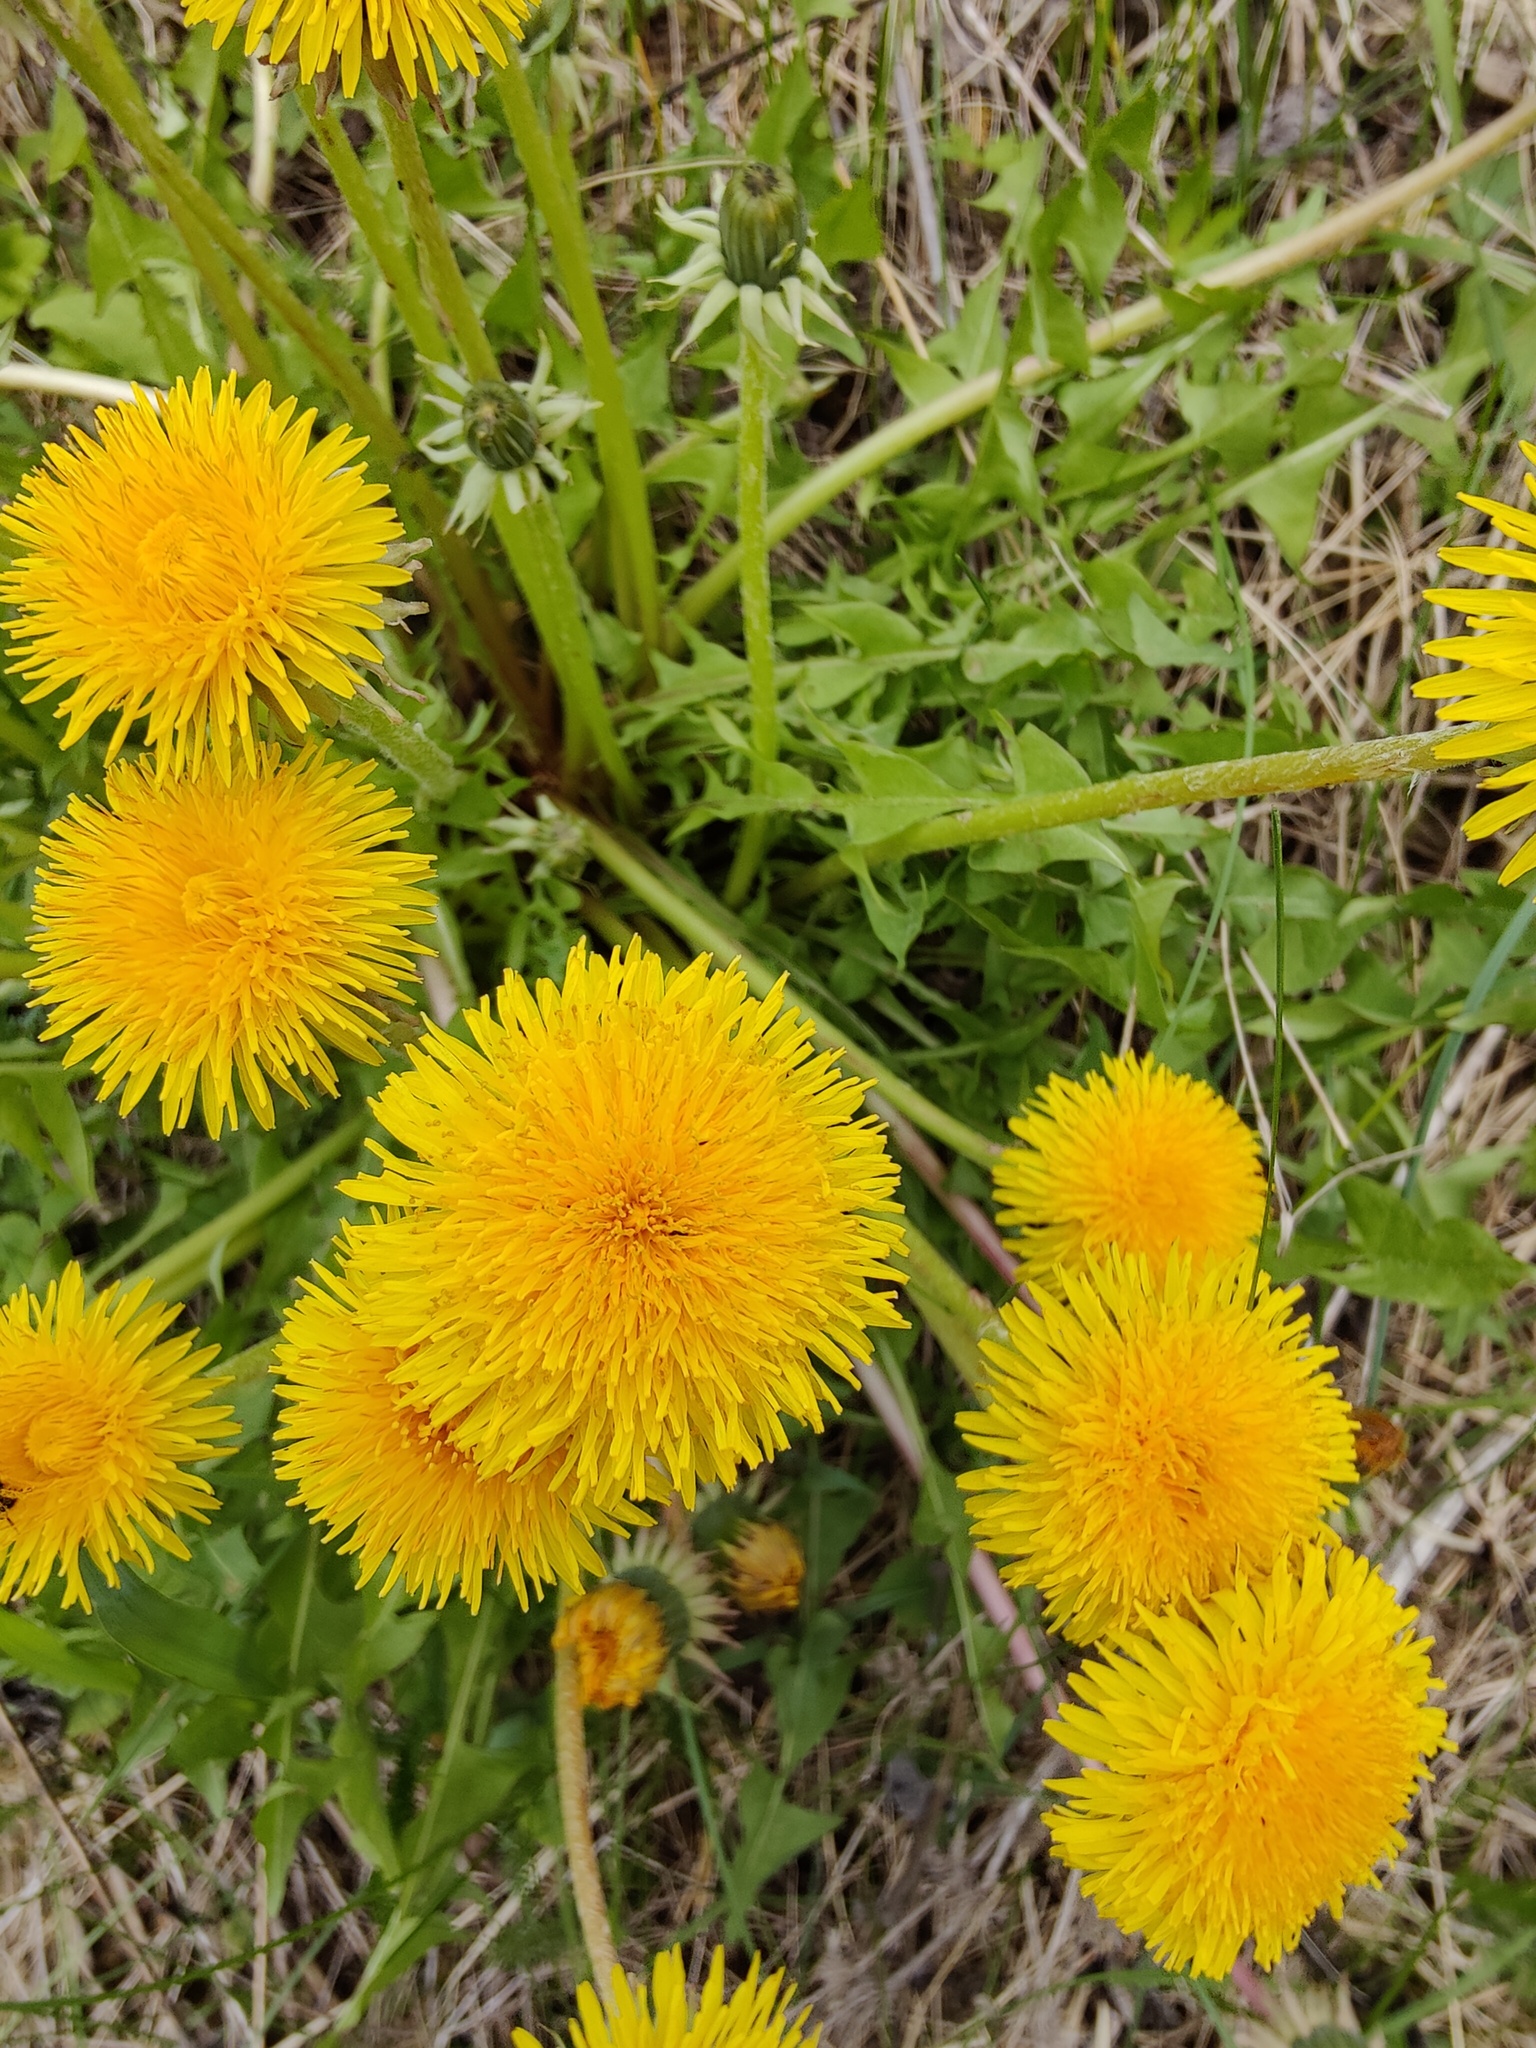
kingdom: Plantae
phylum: Tracheophyta
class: Magnoliopsida
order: Asterales
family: Asteraceae
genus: Taraxacum
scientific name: Taraxacum officinale
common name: Common dandelion
